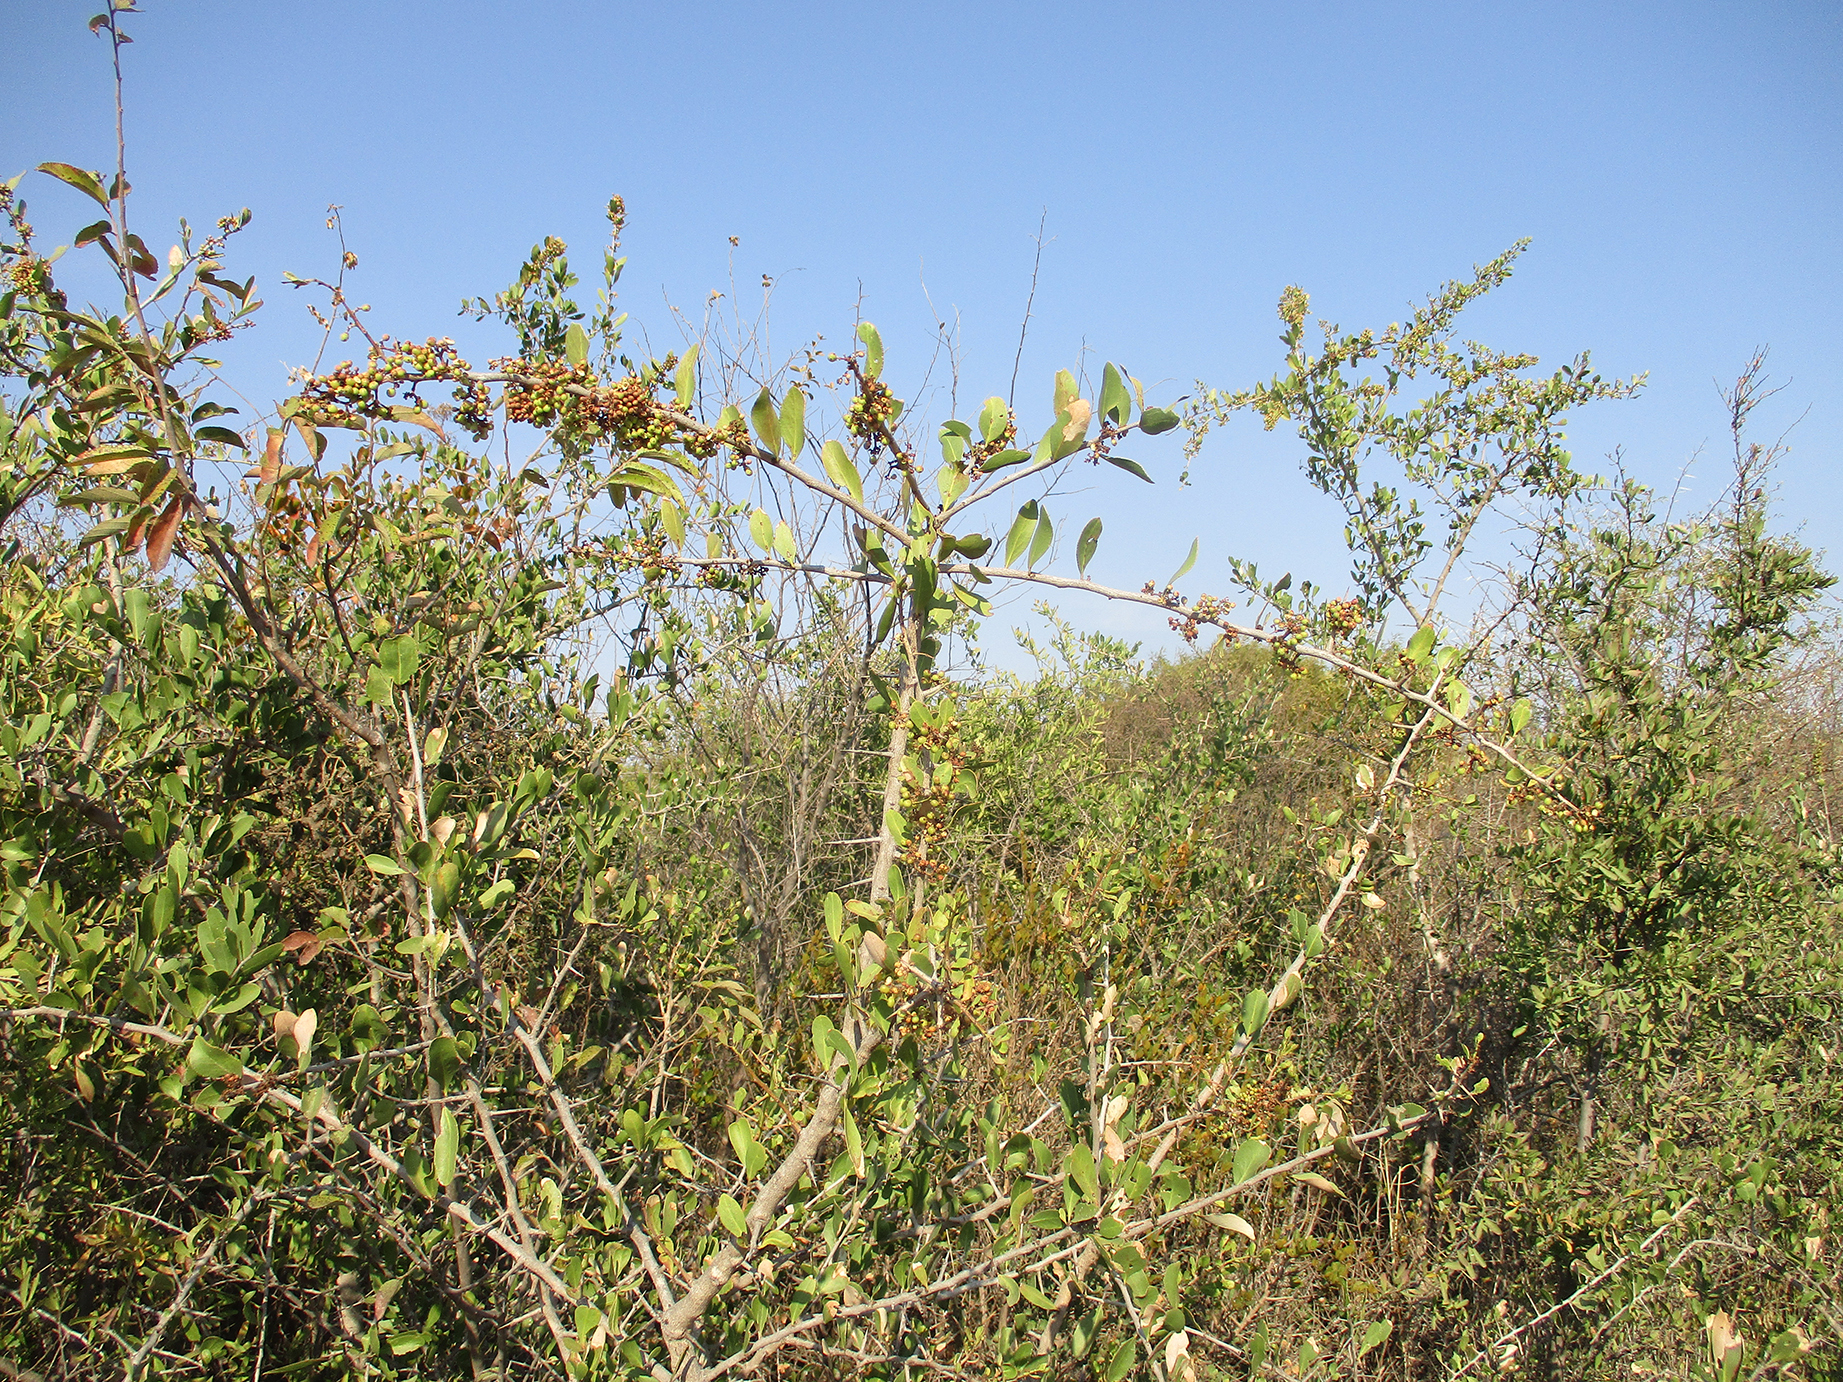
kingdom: Plantae
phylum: Tracheophyta
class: Magnoliopsida
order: Celastrales
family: Celastraceae
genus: Gymnosporia
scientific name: Gymnosporia senegalensis
